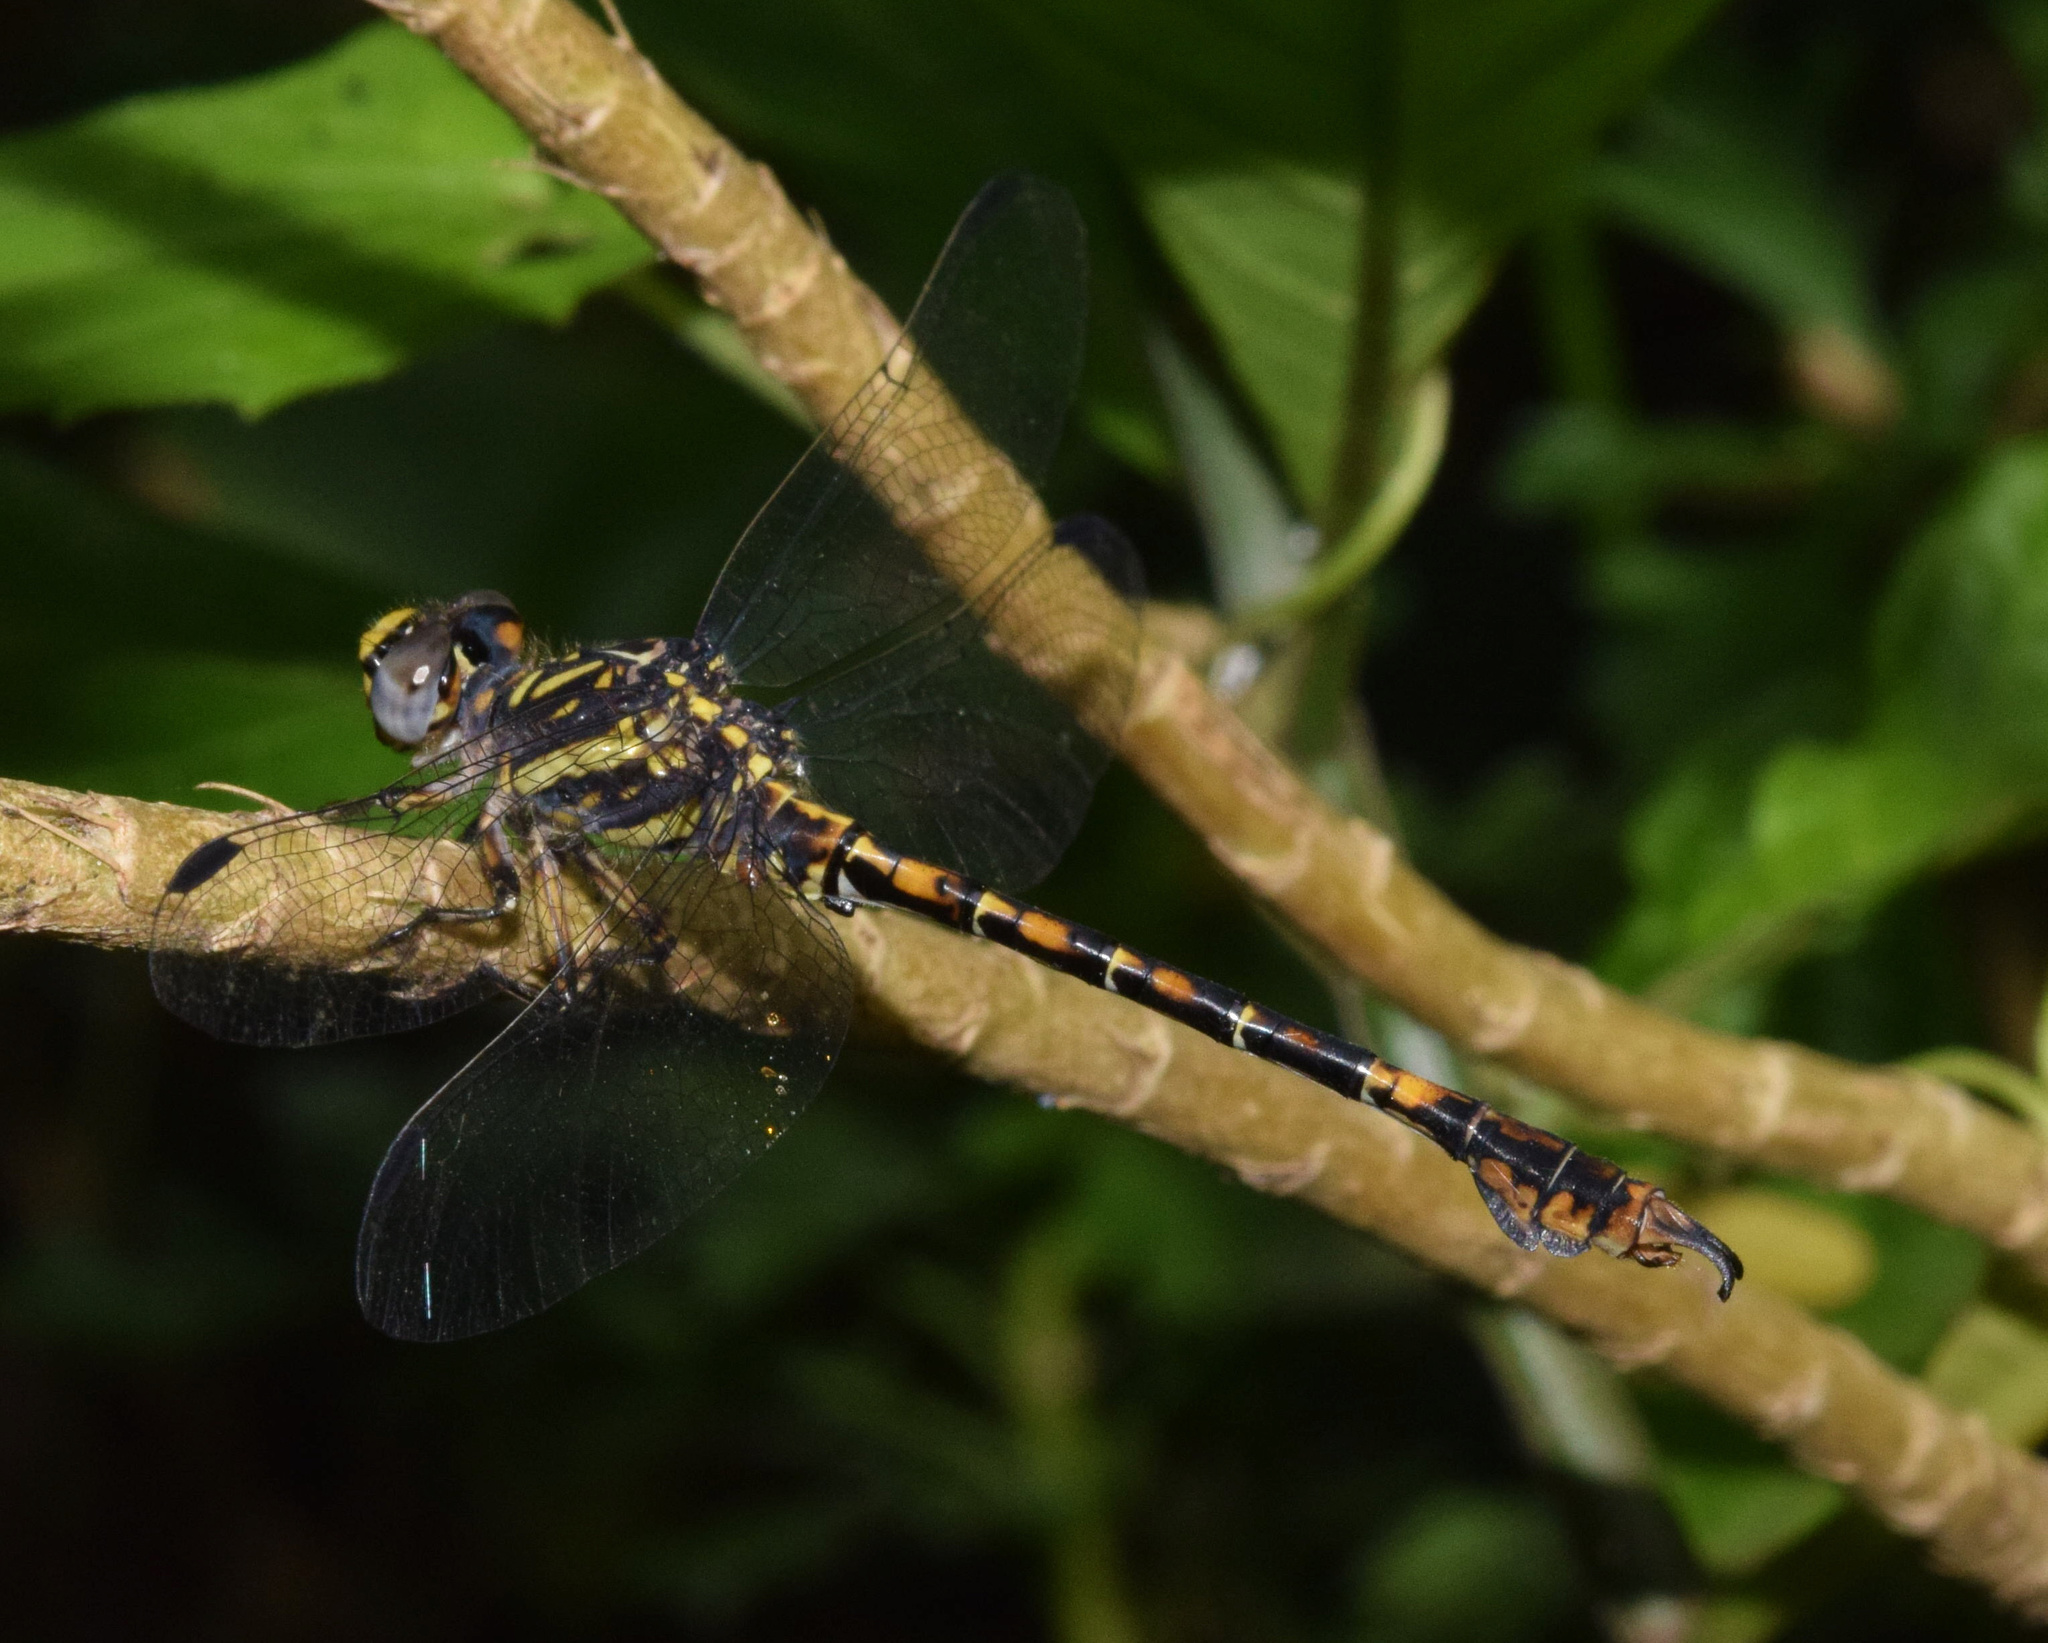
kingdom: Animalia
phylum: Arthropoda
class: Insecta
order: Odonata
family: Gomphidae
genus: Paragomphus
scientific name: Paragomphus cognatus
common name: Boulder hooktail
